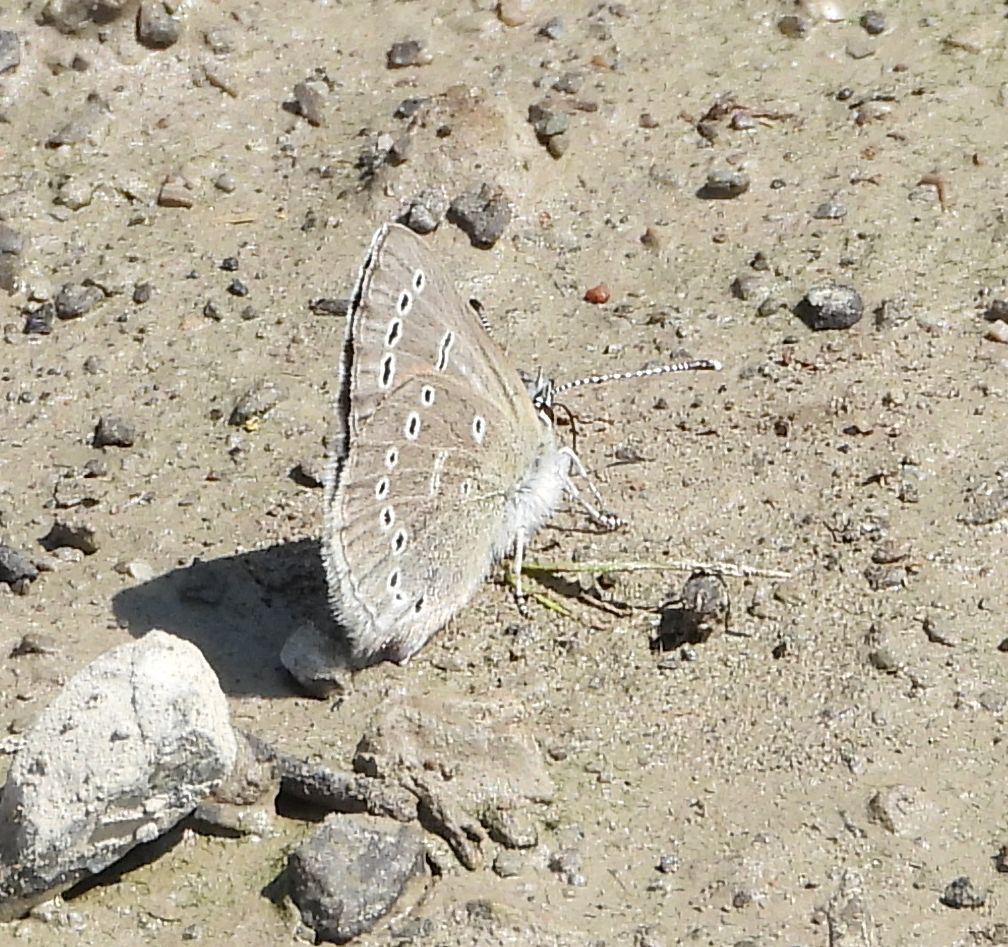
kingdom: Animalia
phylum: Arthropoda
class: Insecta
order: Lepidoptera
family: Lycaenidae
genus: Glaucopsyche
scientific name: Glaucopsyche lygdamus
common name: Silvery blue
